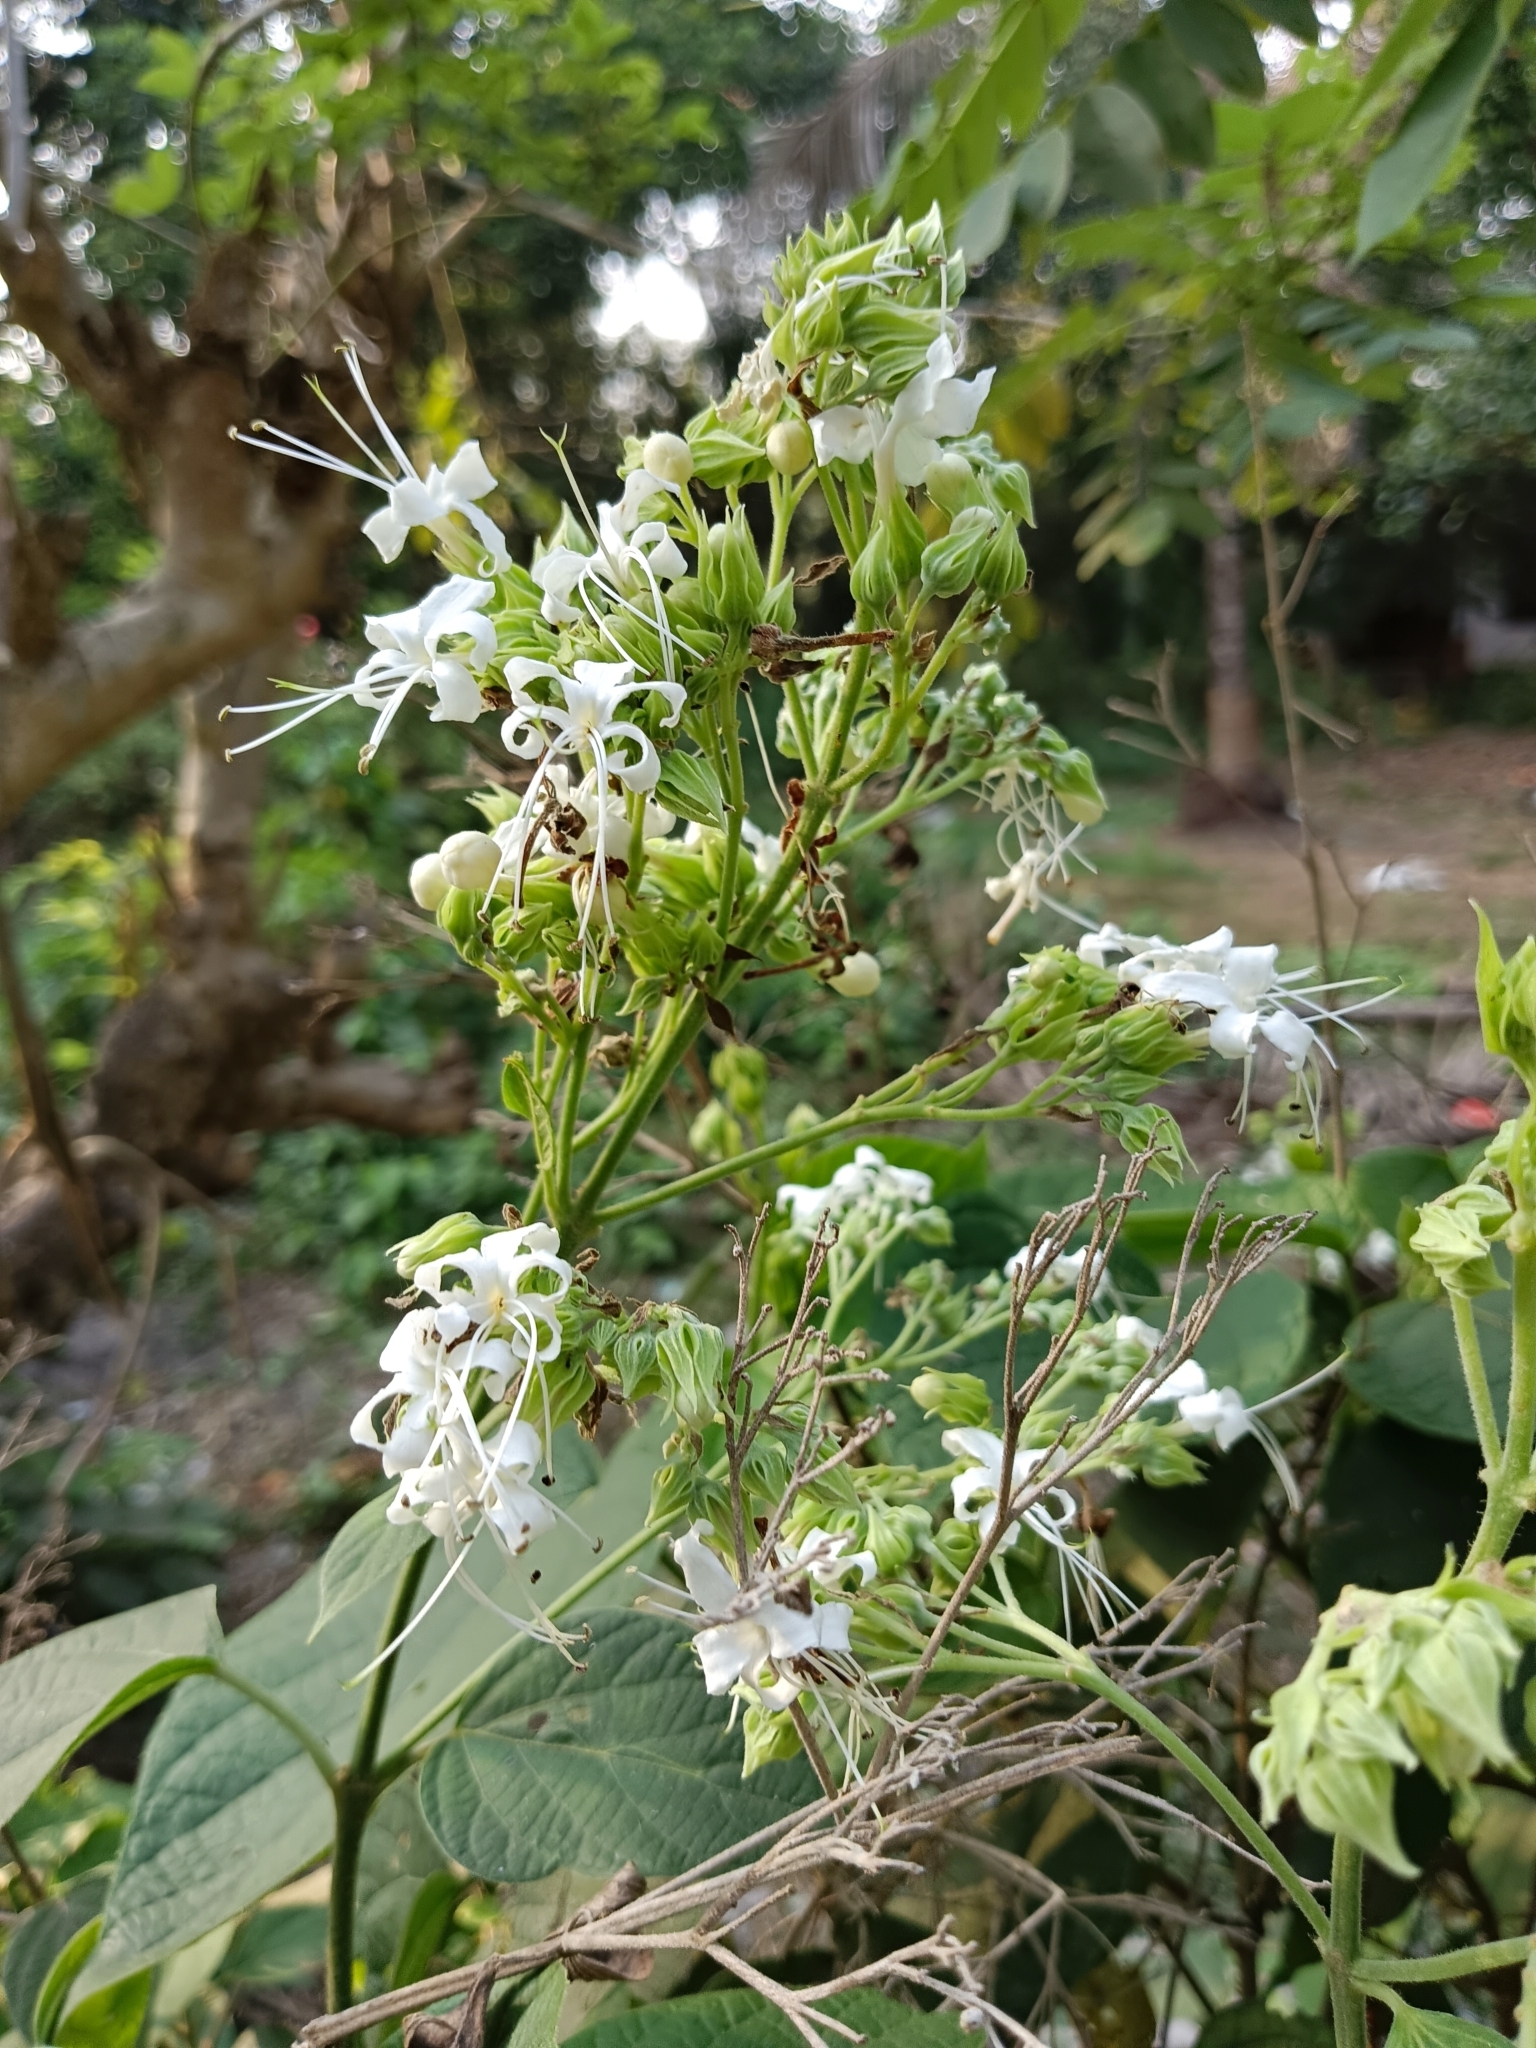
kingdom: Plantae
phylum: Tracheophyta
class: Magnoliopsida
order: Lamiales
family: Lamiaceae
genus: Clerodendrum
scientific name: Clerodendrum infortunatum
